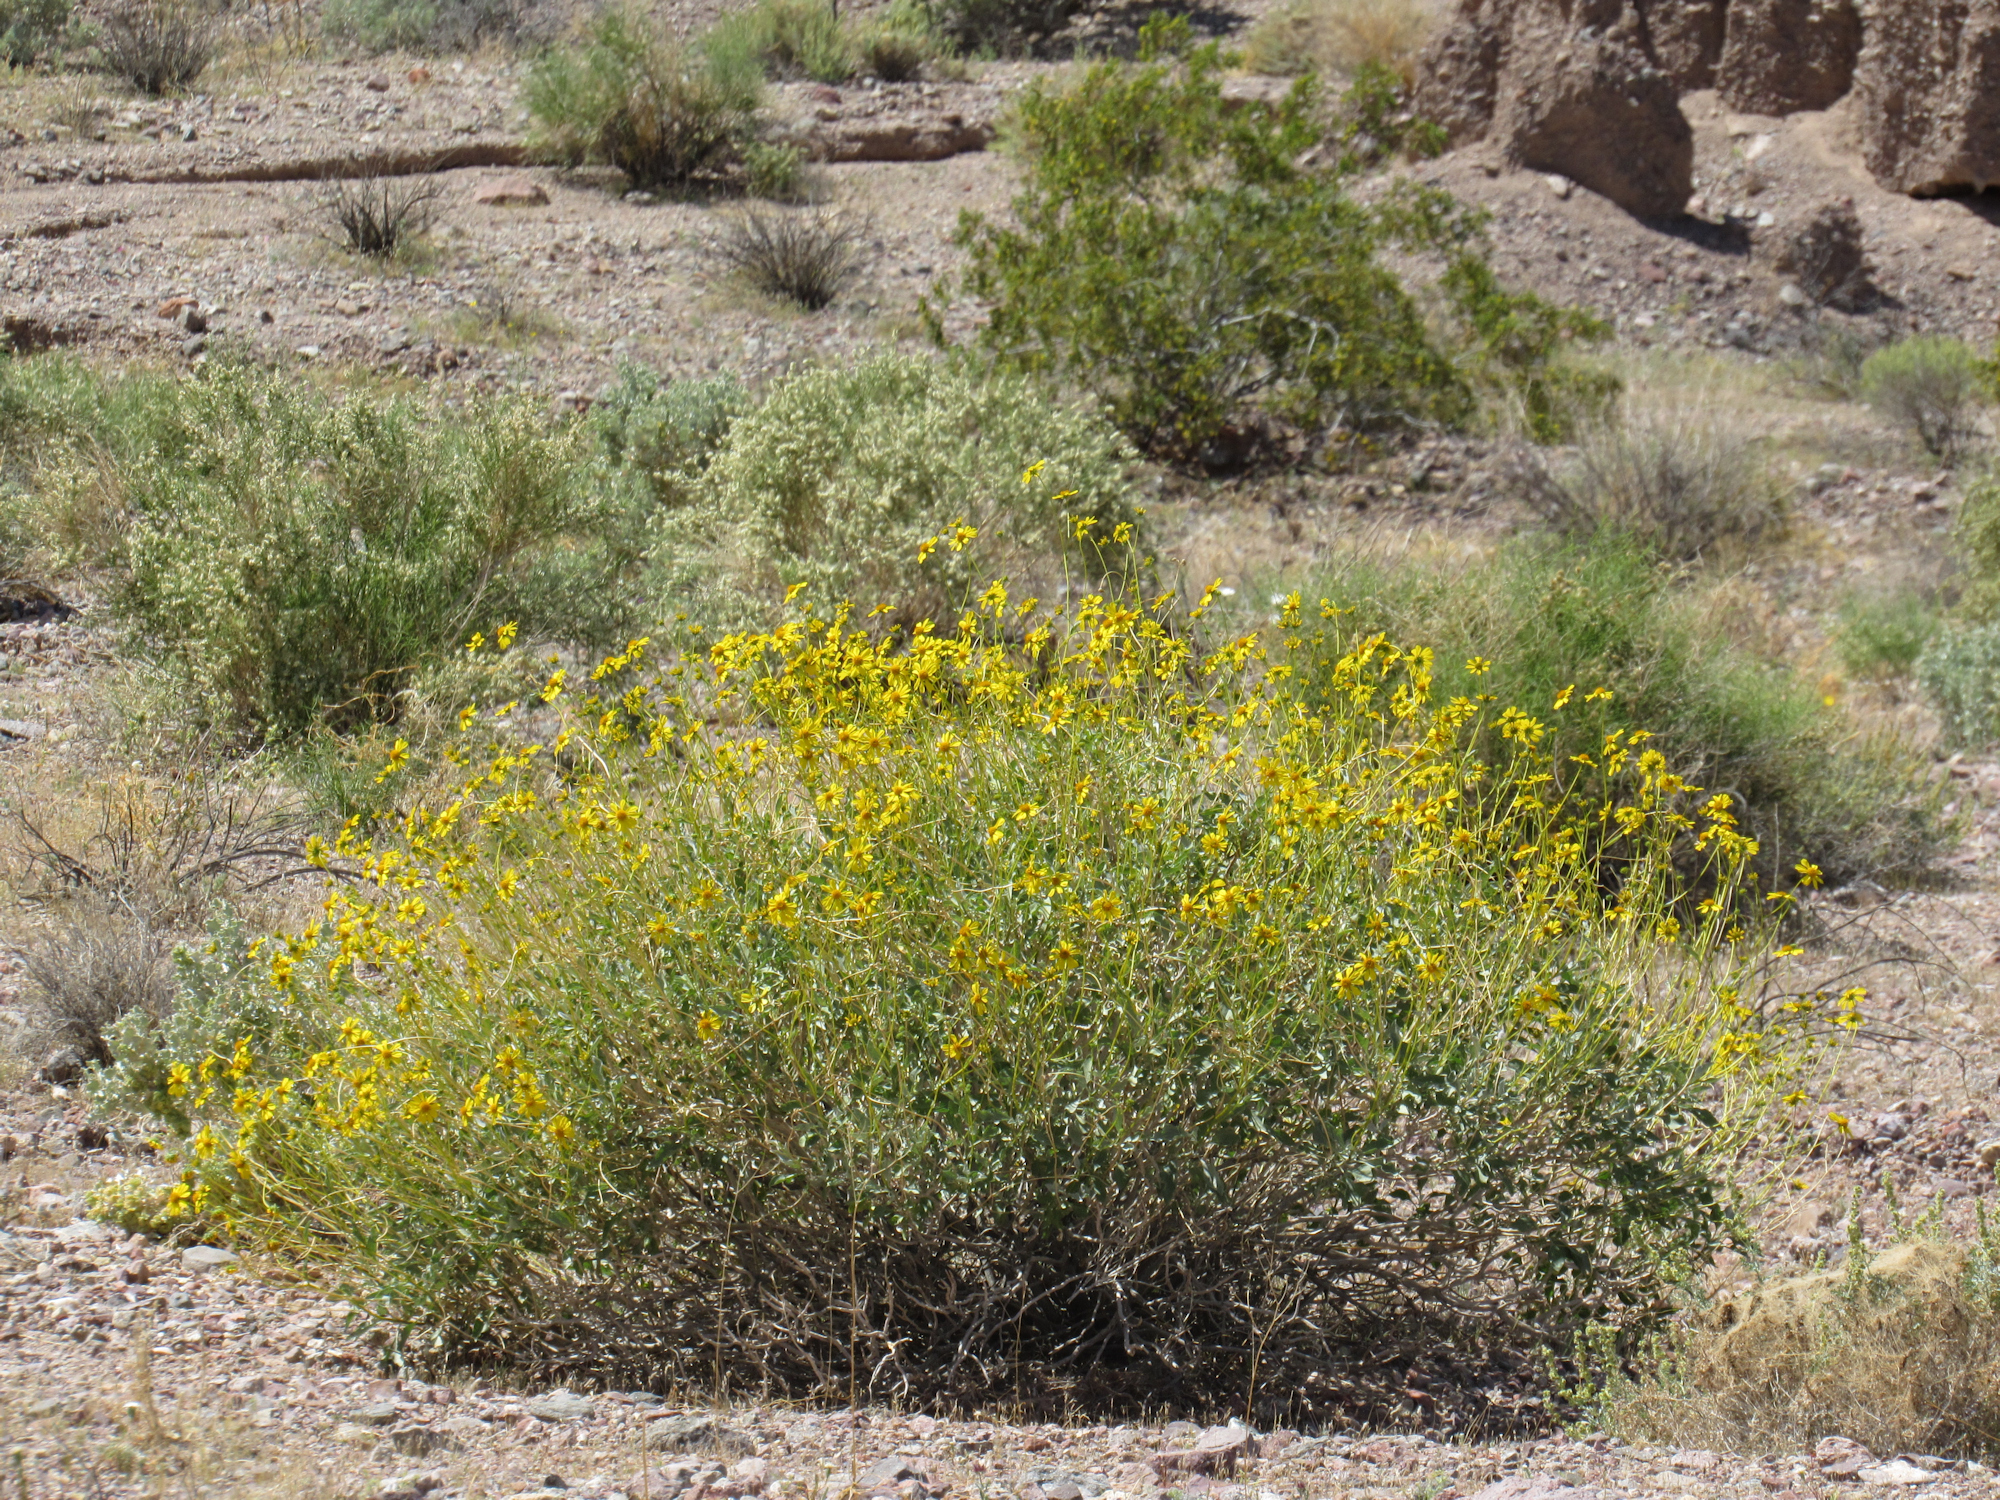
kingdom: Plantae
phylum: Tracheophyta
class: Magnoliopsida
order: Asterales
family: Asteraceae
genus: Encelia
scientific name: Encelia farinosa
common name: Brittlebush
